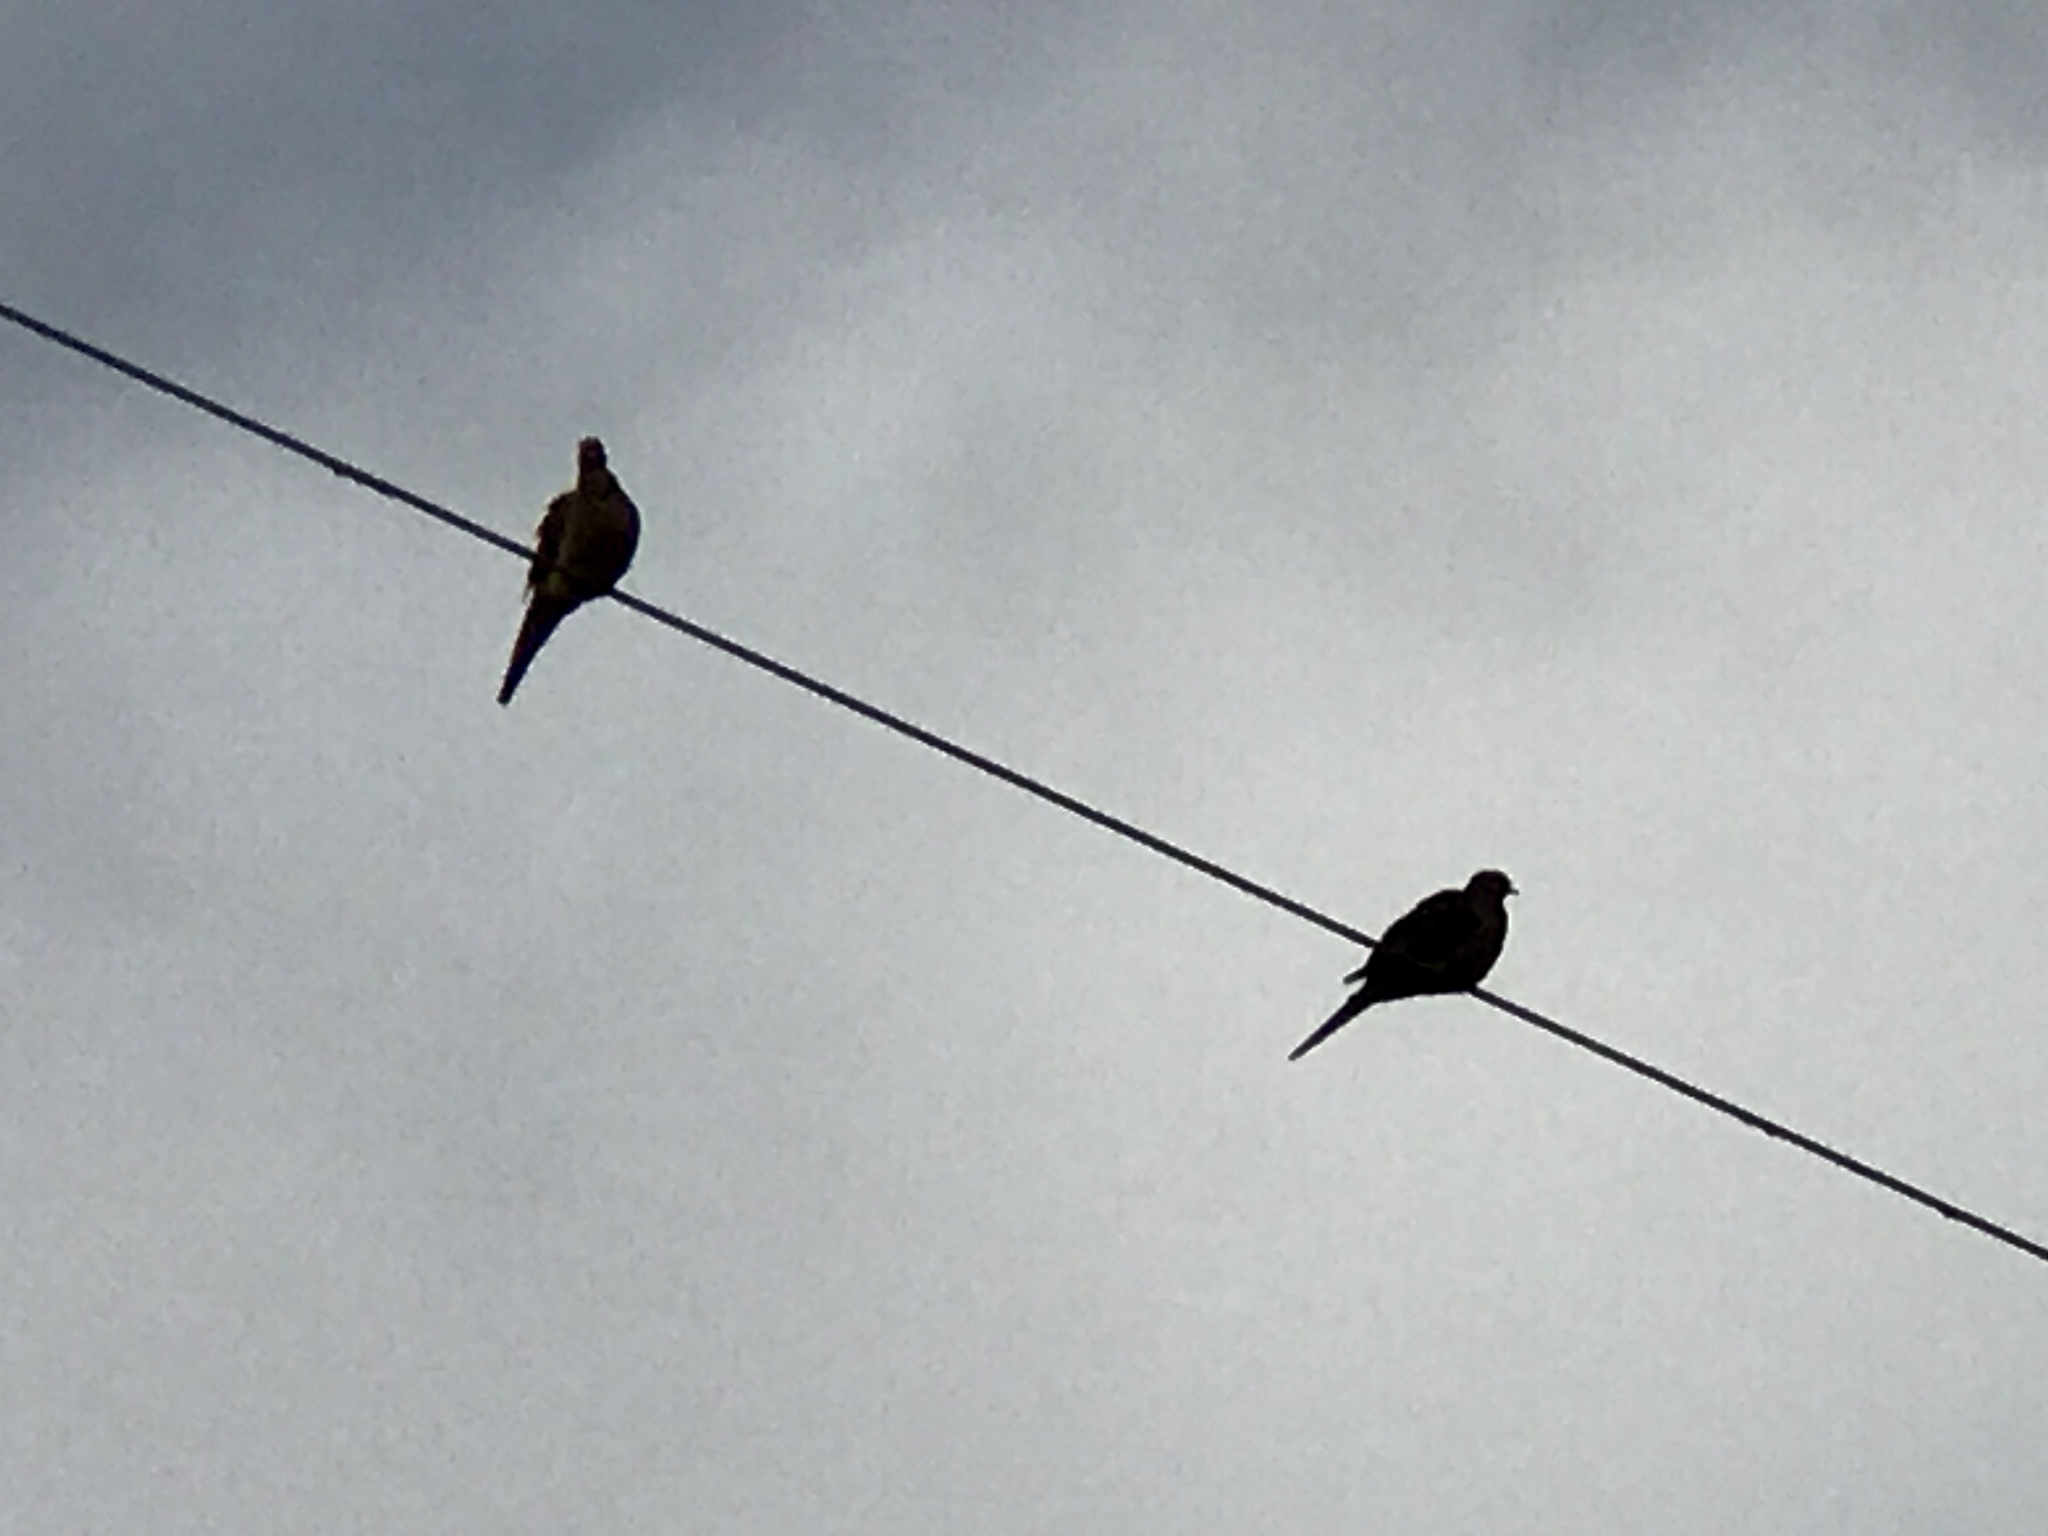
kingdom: Animalia
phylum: Chordata
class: Aves
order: Columbiformes
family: Columbidae
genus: Zenaida
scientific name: Zenaida macroura
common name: Mourning dove
